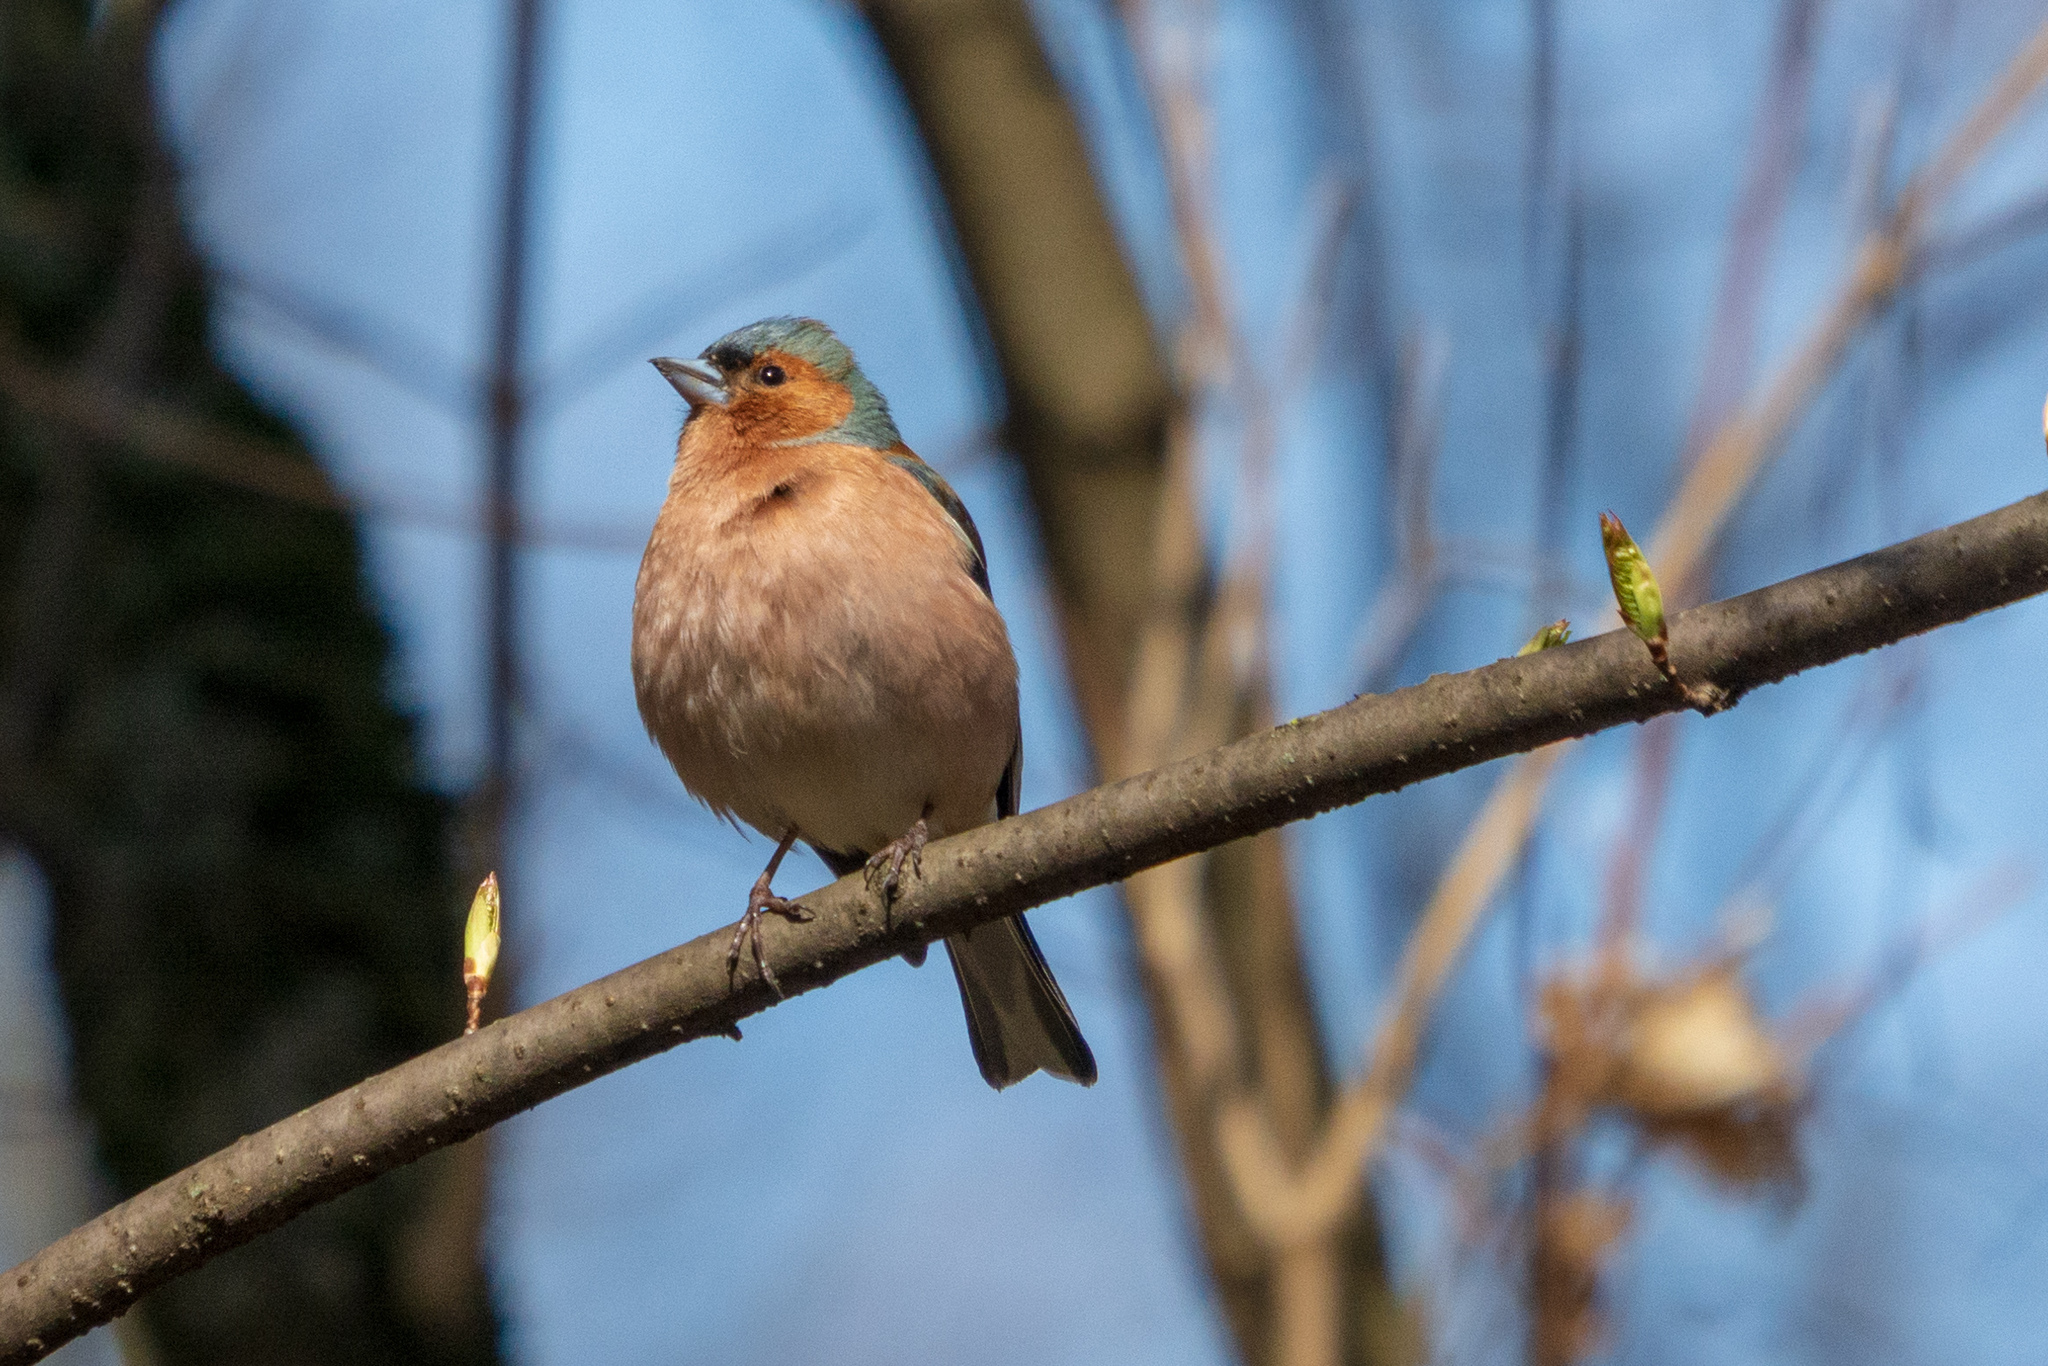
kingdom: Animalia
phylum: Chordata
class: Aves
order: Passeriformes
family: Fringillidae
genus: Fringilla
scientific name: Fringilla coelebs
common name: Common chaffinch
